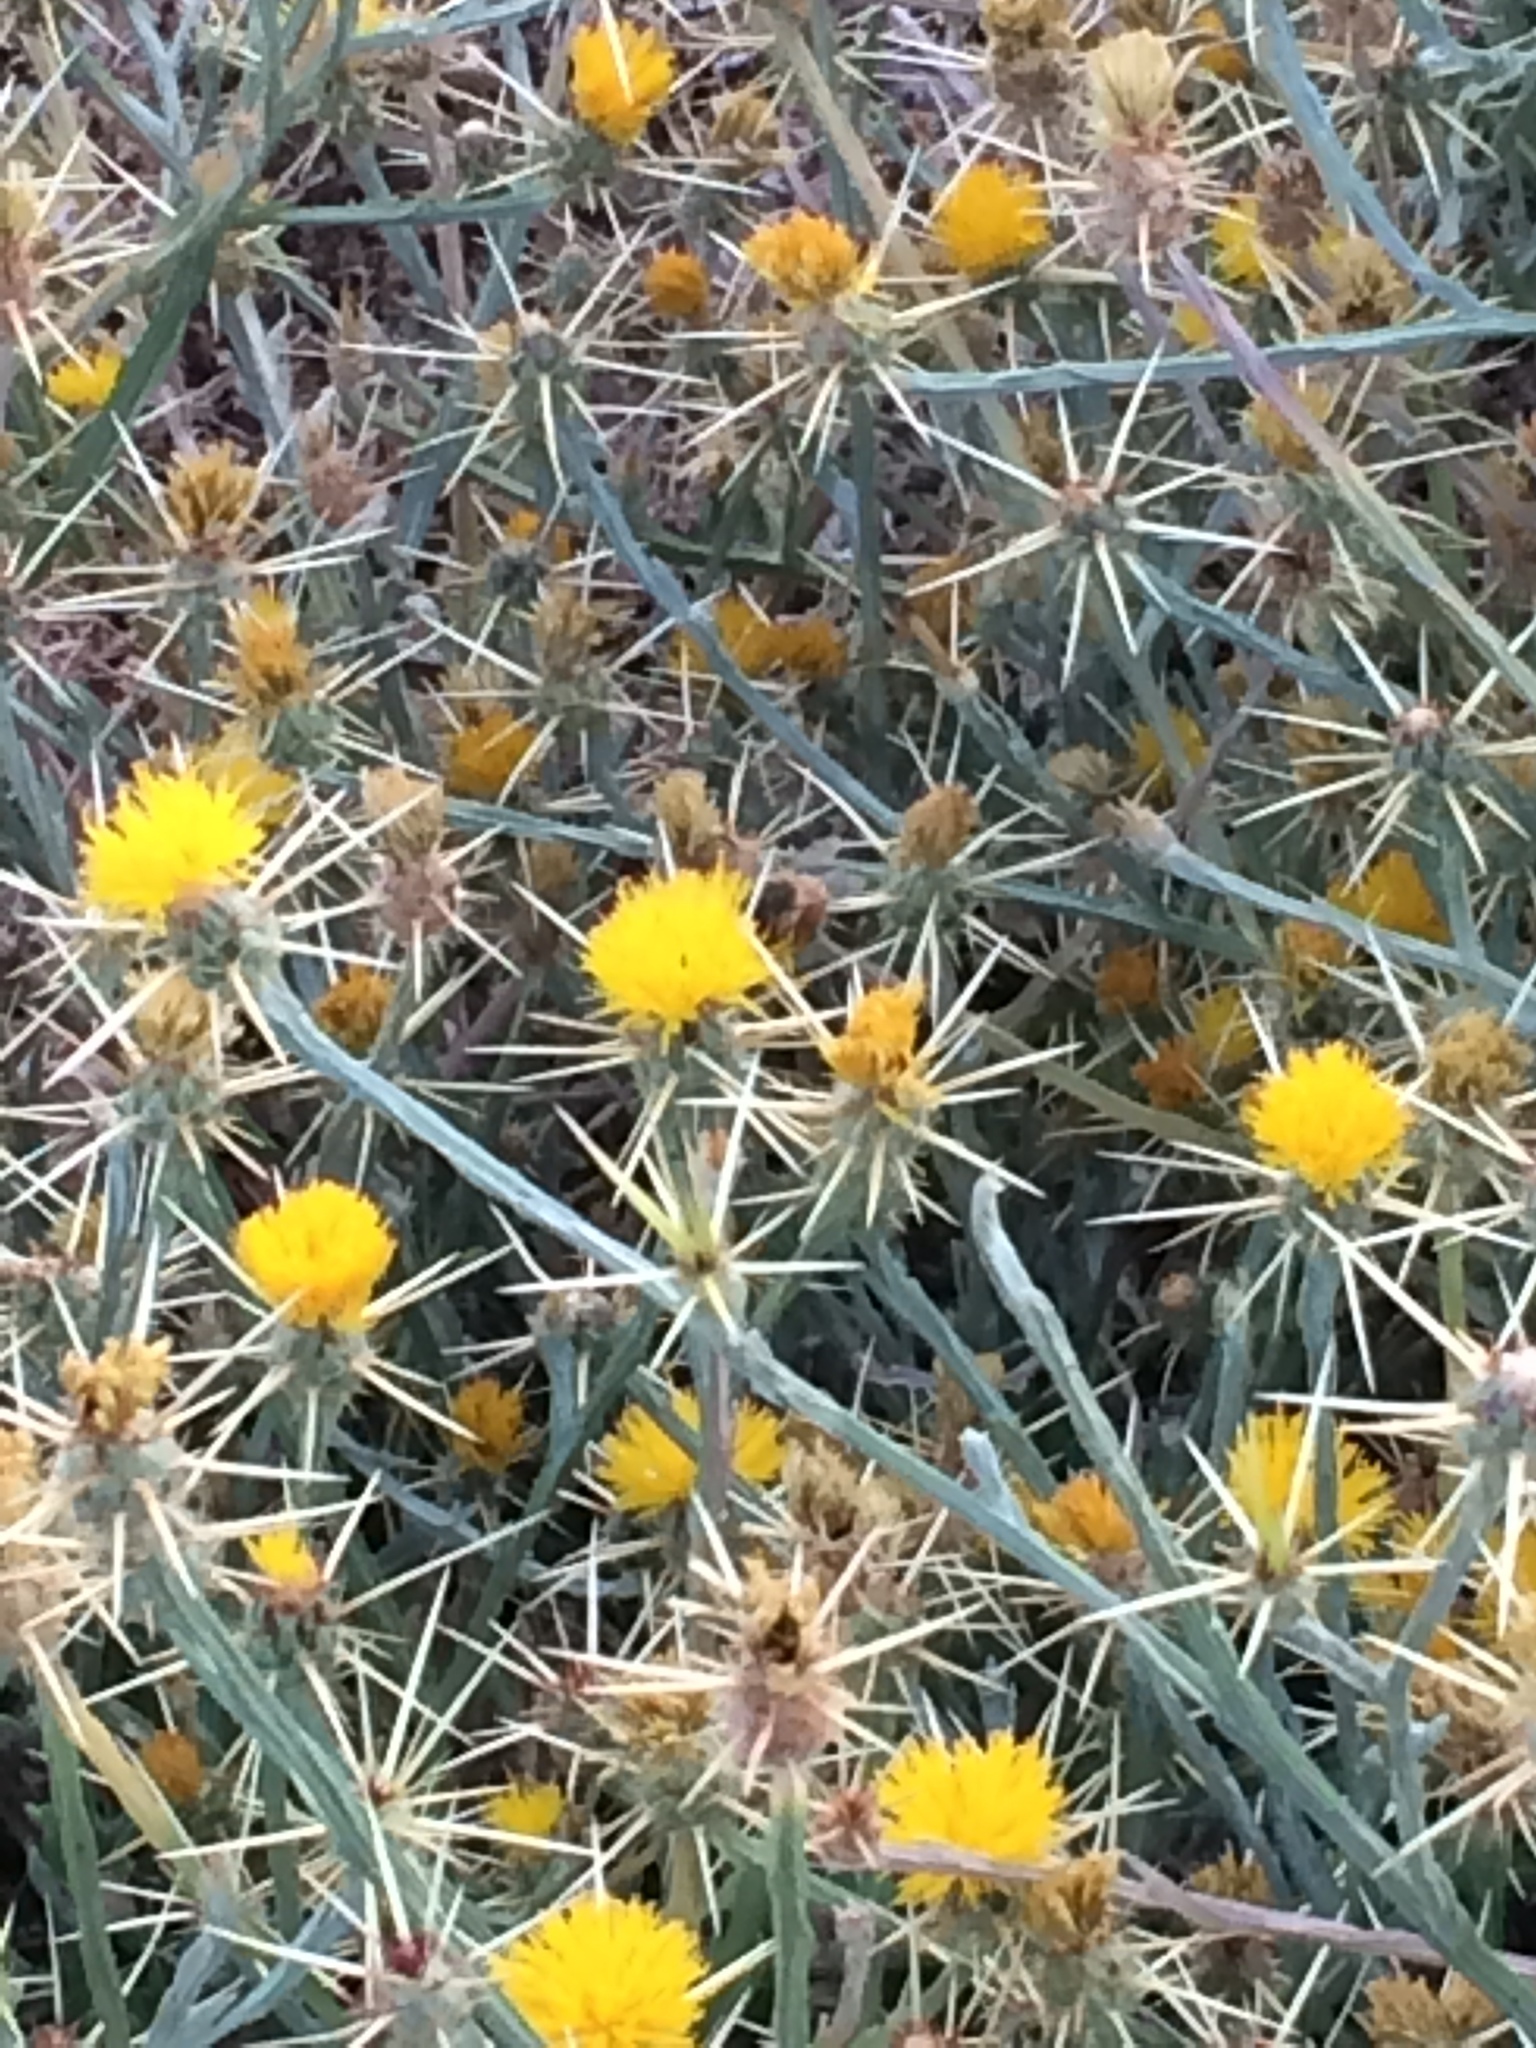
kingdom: Plantae
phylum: Tracheophyta
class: Magnoliopsida
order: Asterales
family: Asteraceae
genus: Centaurea
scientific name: Centaurea solstitialis
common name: Yellow star-thistle
